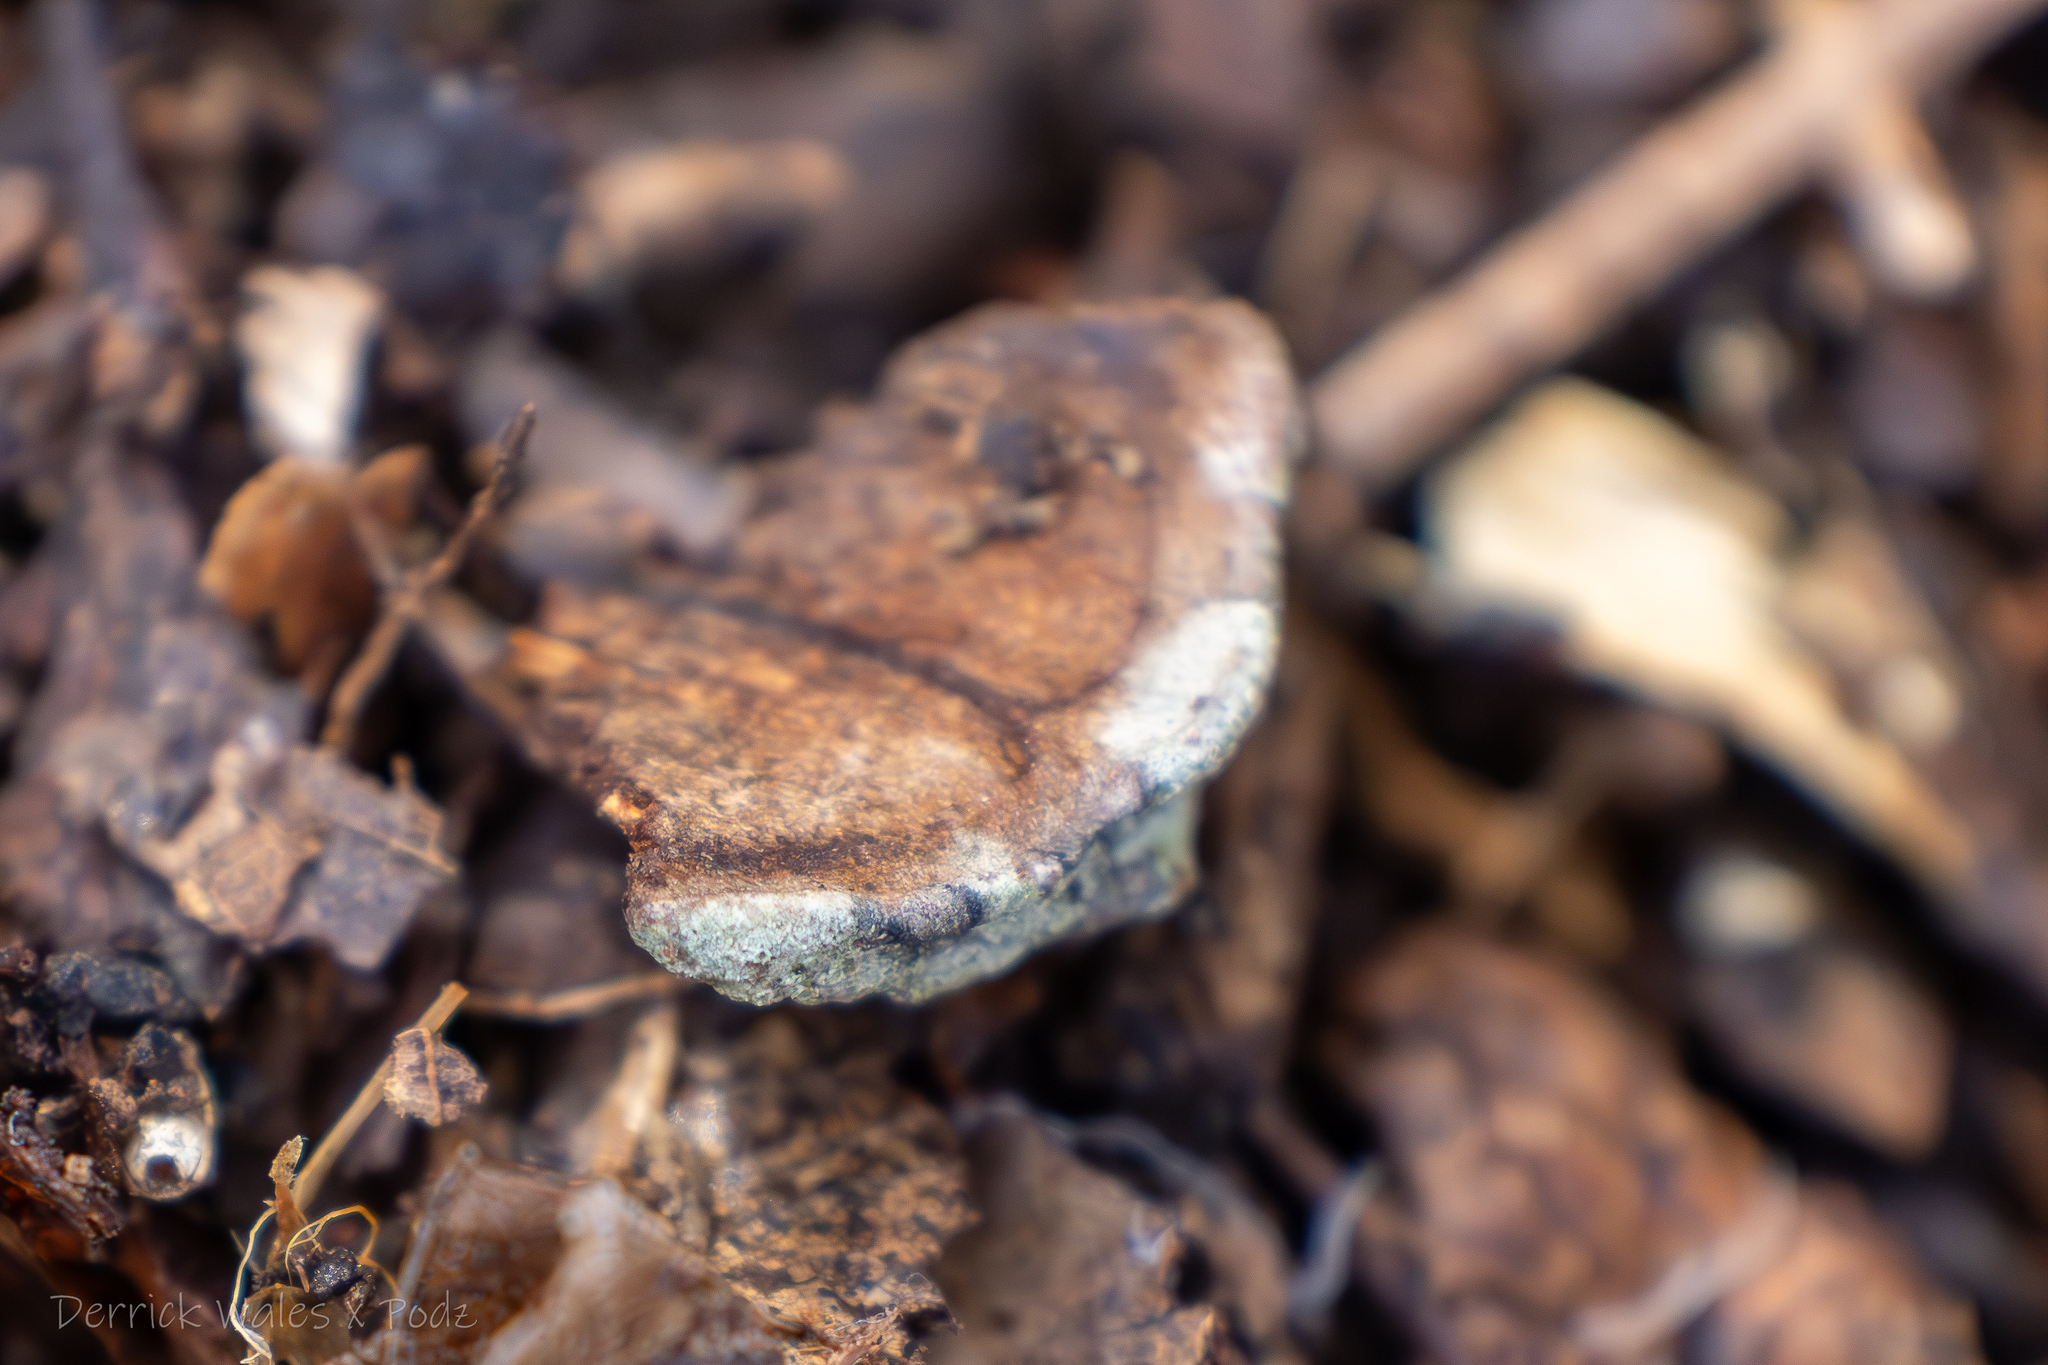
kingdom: Fungi
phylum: Ascomycota
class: Lecanoromycetes
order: Lecanorales
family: Lecanoraceae
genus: Lecanora
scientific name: Lecanora strobilina
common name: Mealy rim-lichen
